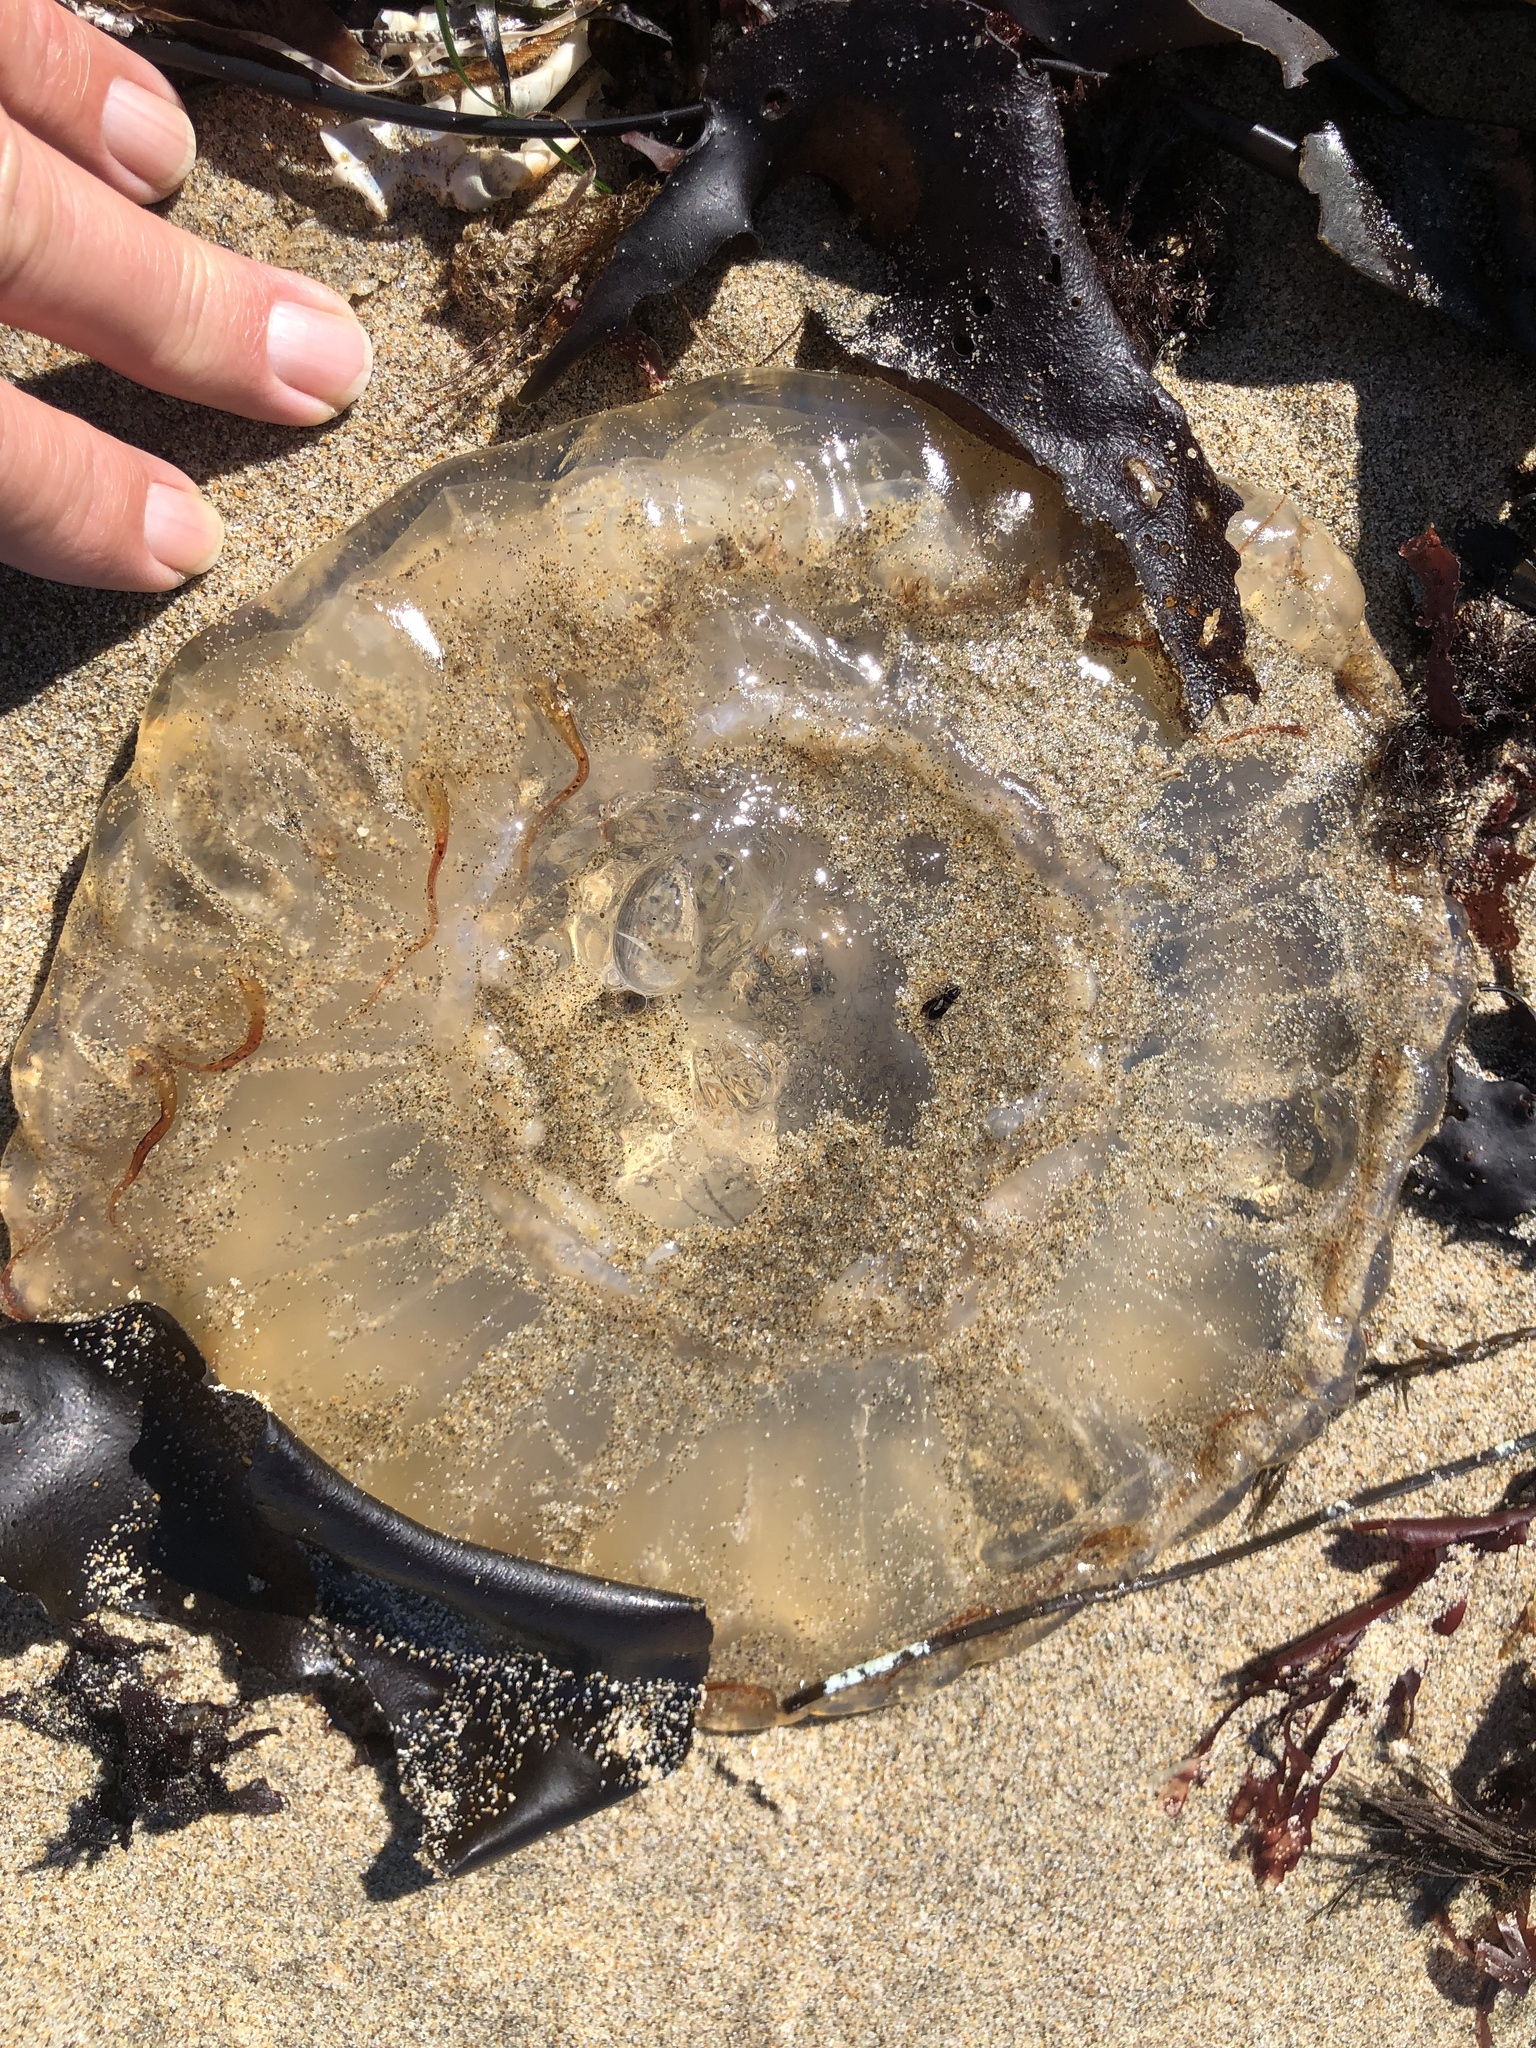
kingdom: Animalia
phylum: Cnidaria
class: Scyphozoa
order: Semaeostomeae
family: Pelagiidae
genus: Chrysaora
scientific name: Chrysaora fuscescens
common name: Sea nettle
